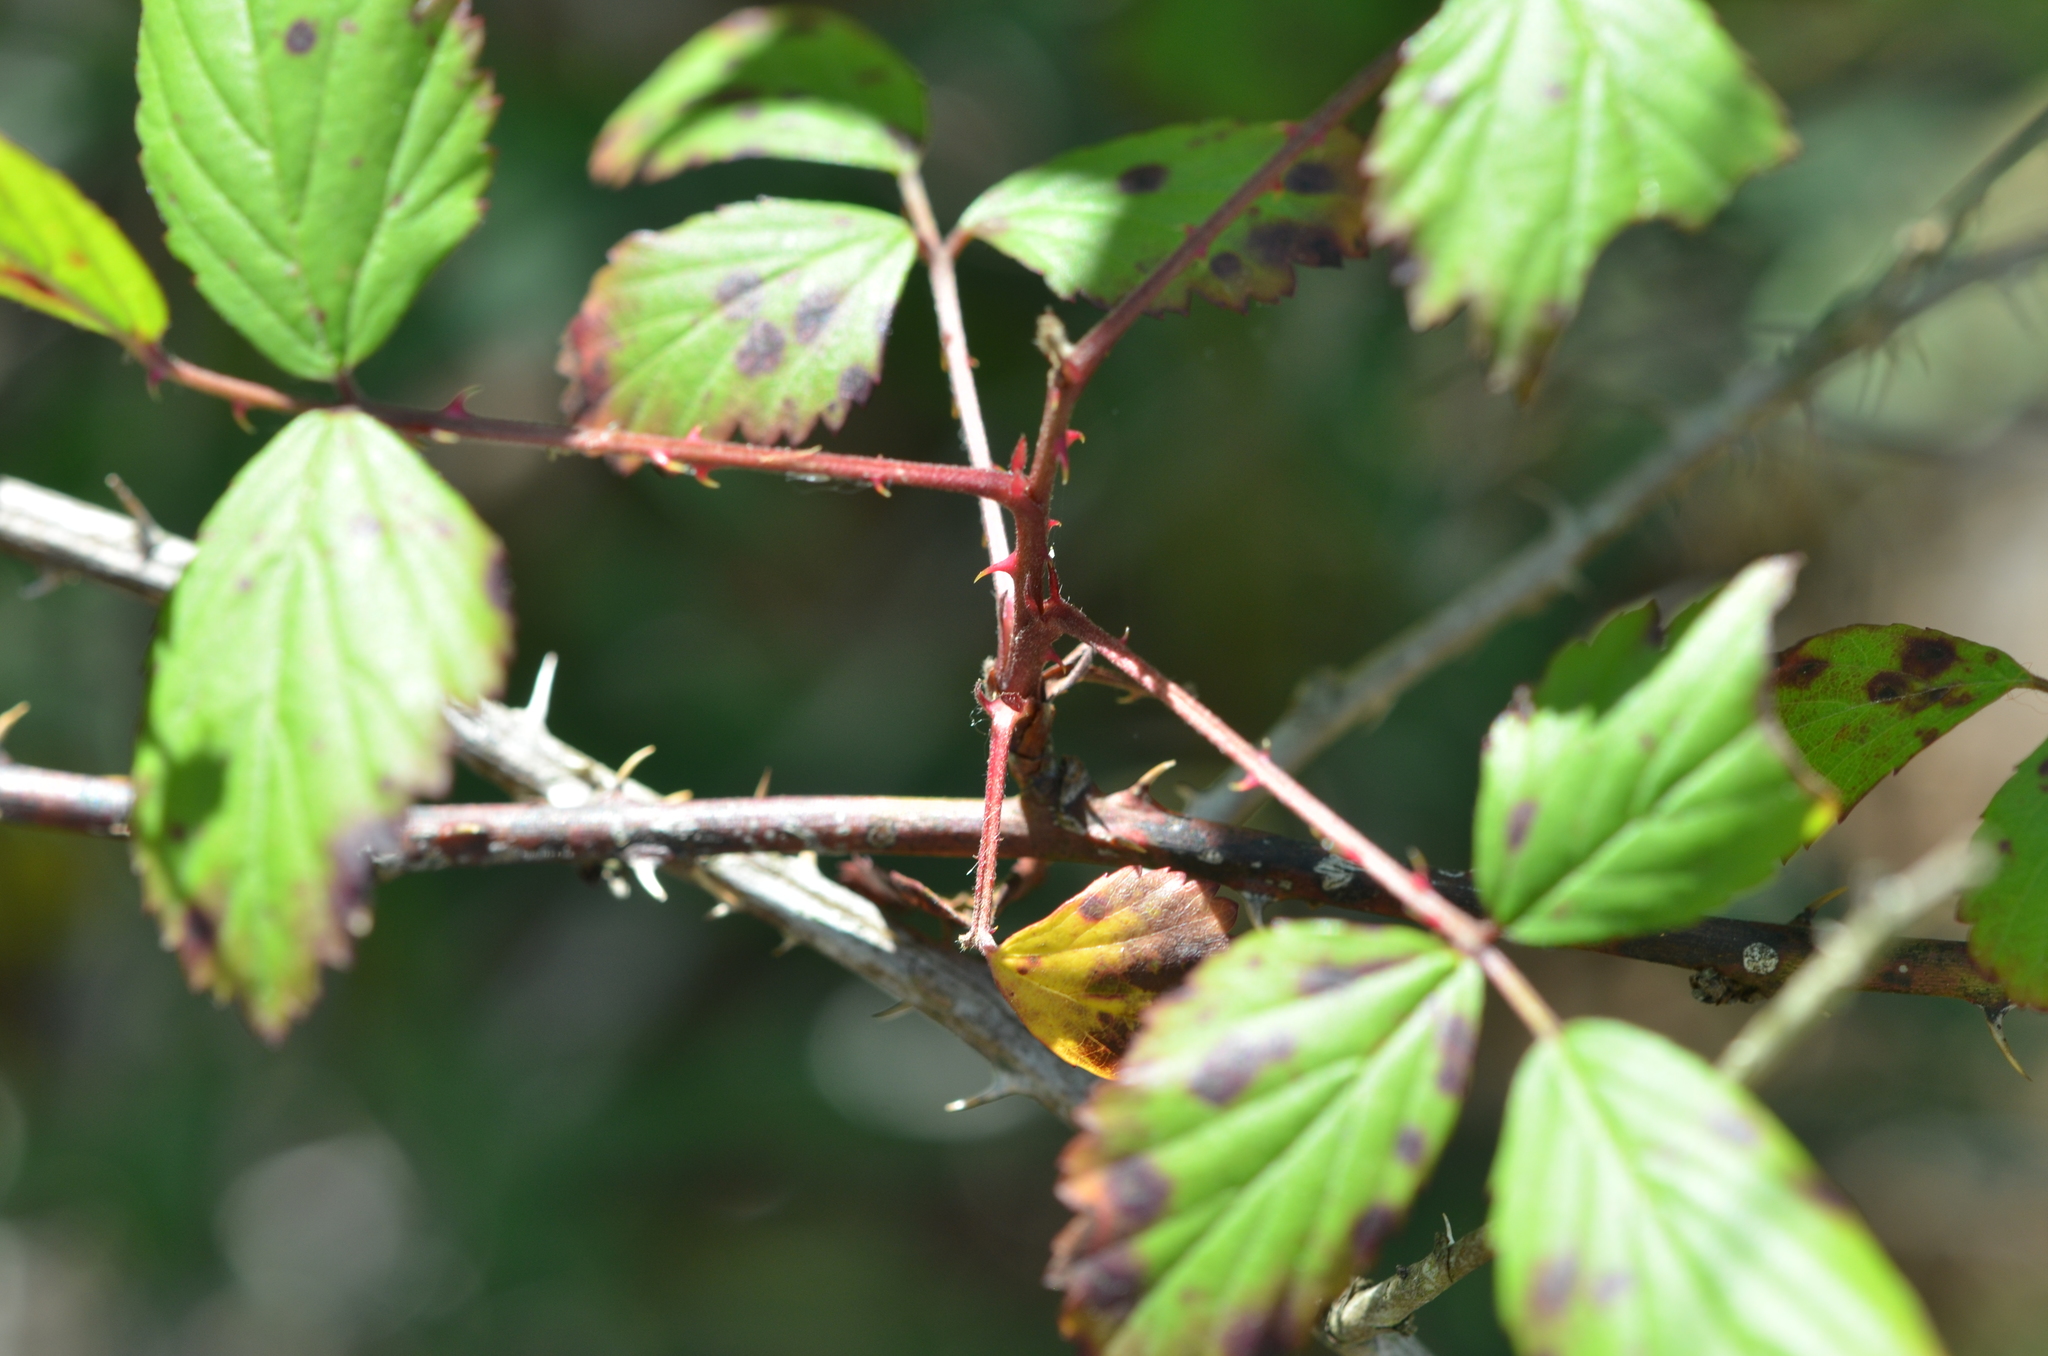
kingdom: Plantae
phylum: Tracheophyta
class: Magnoliopsida
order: Rosales
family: Rosaceae
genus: Rubus
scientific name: Rubus flagellaris
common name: American dewberry
